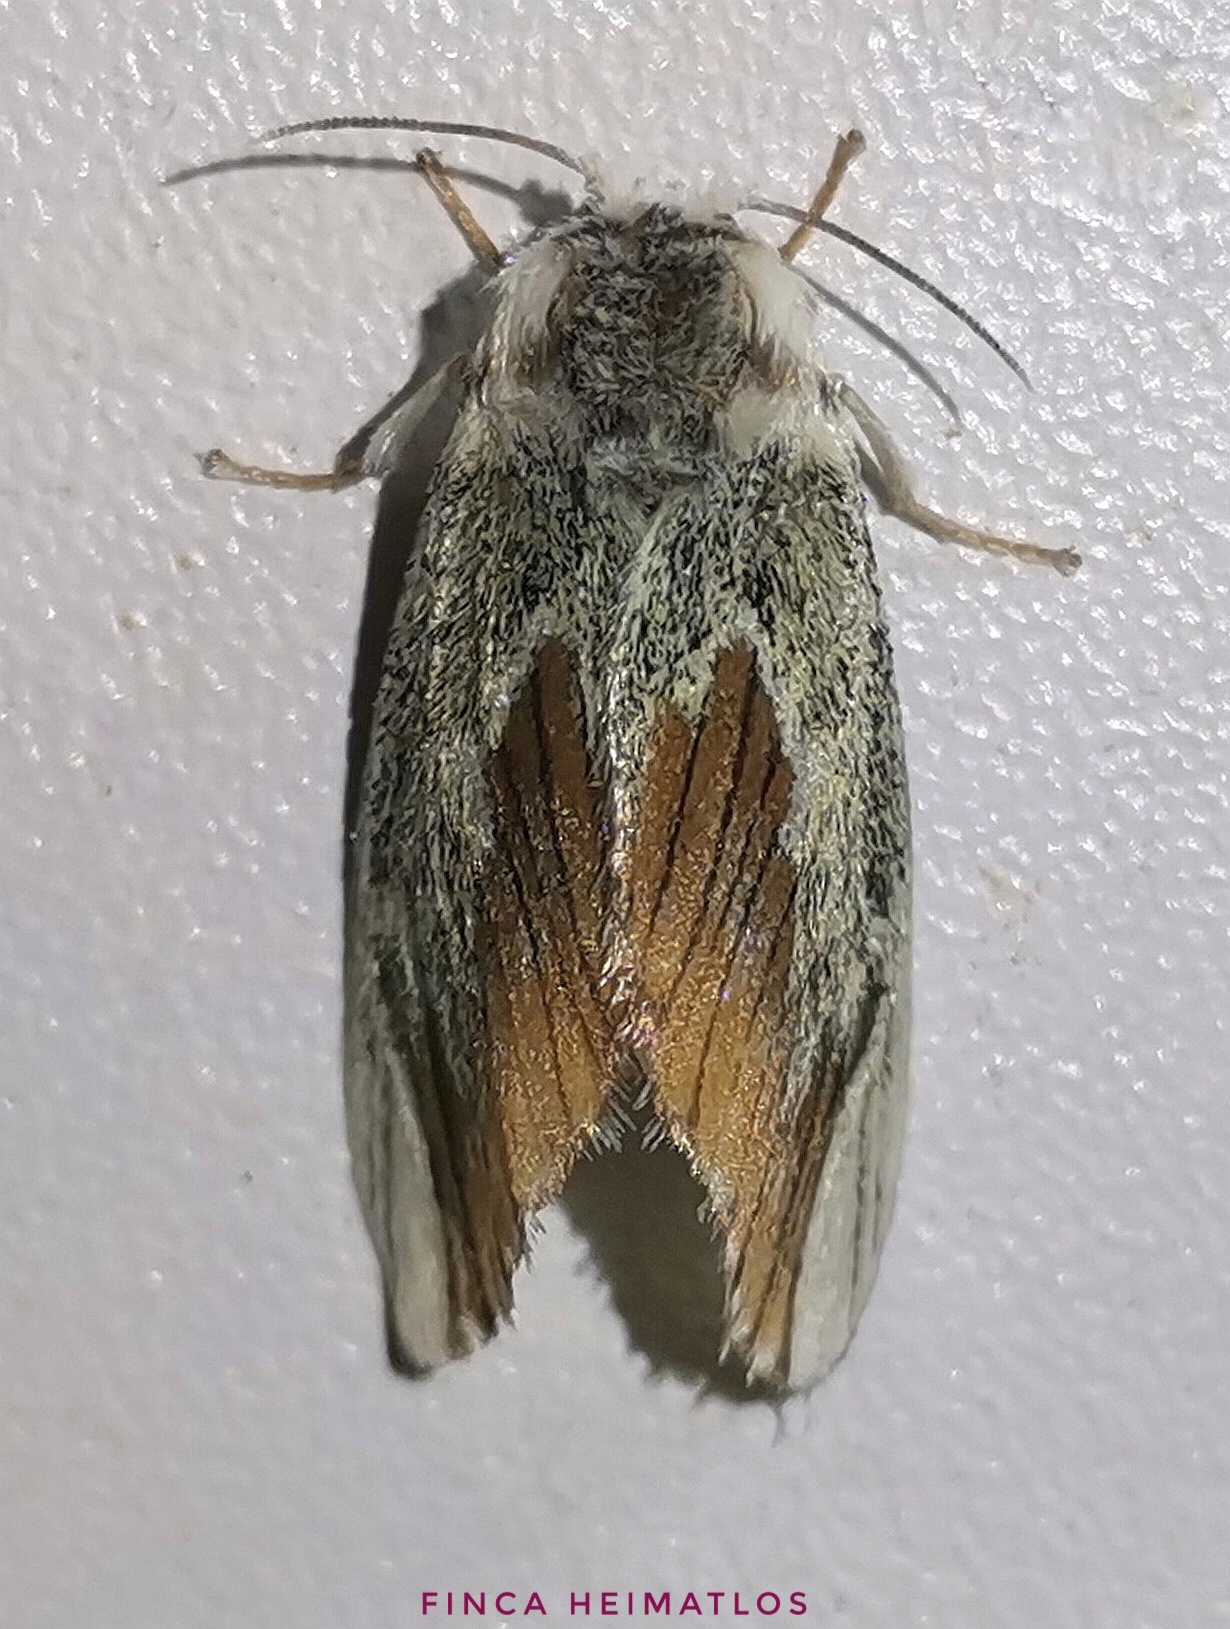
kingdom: Animalia
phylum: Arthropoda
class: Insecta
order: Lepidoptera
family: Megalopygidae
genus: Mesoscia
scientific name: Mesoscia terminata
